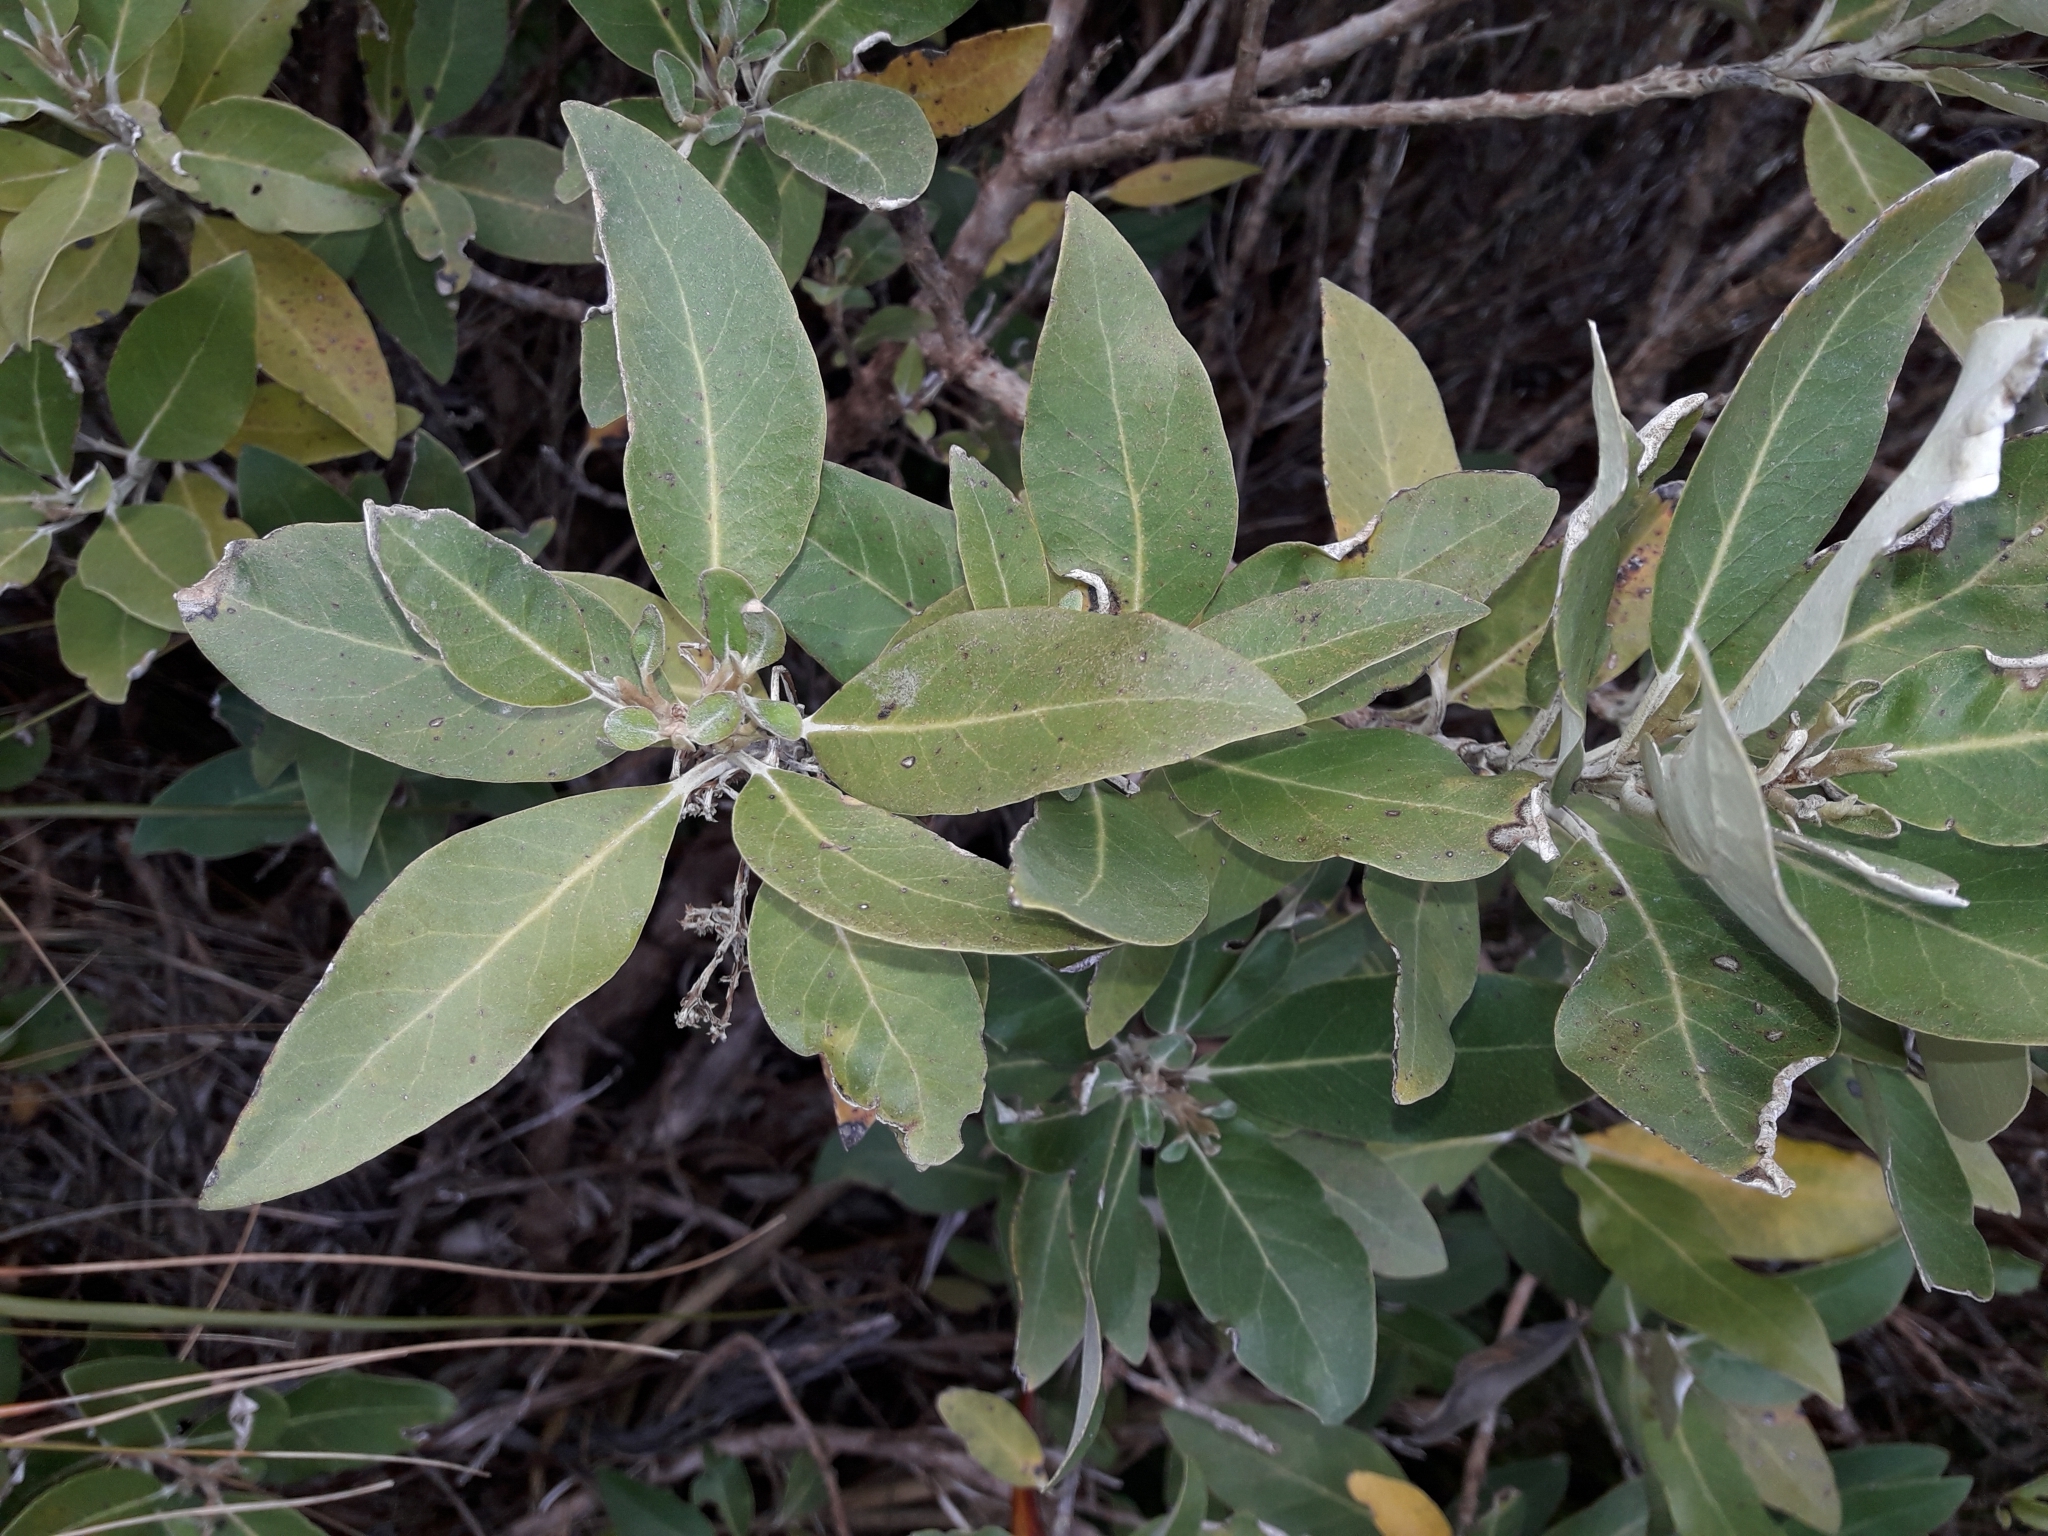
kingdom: Plantae
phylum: Tracheophyta
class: Magnoliopsida
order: Asterales
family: Asteraceae
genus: Olearia
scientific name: Olearia avicenniifolia
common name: Mangrove-leaf daisybush
